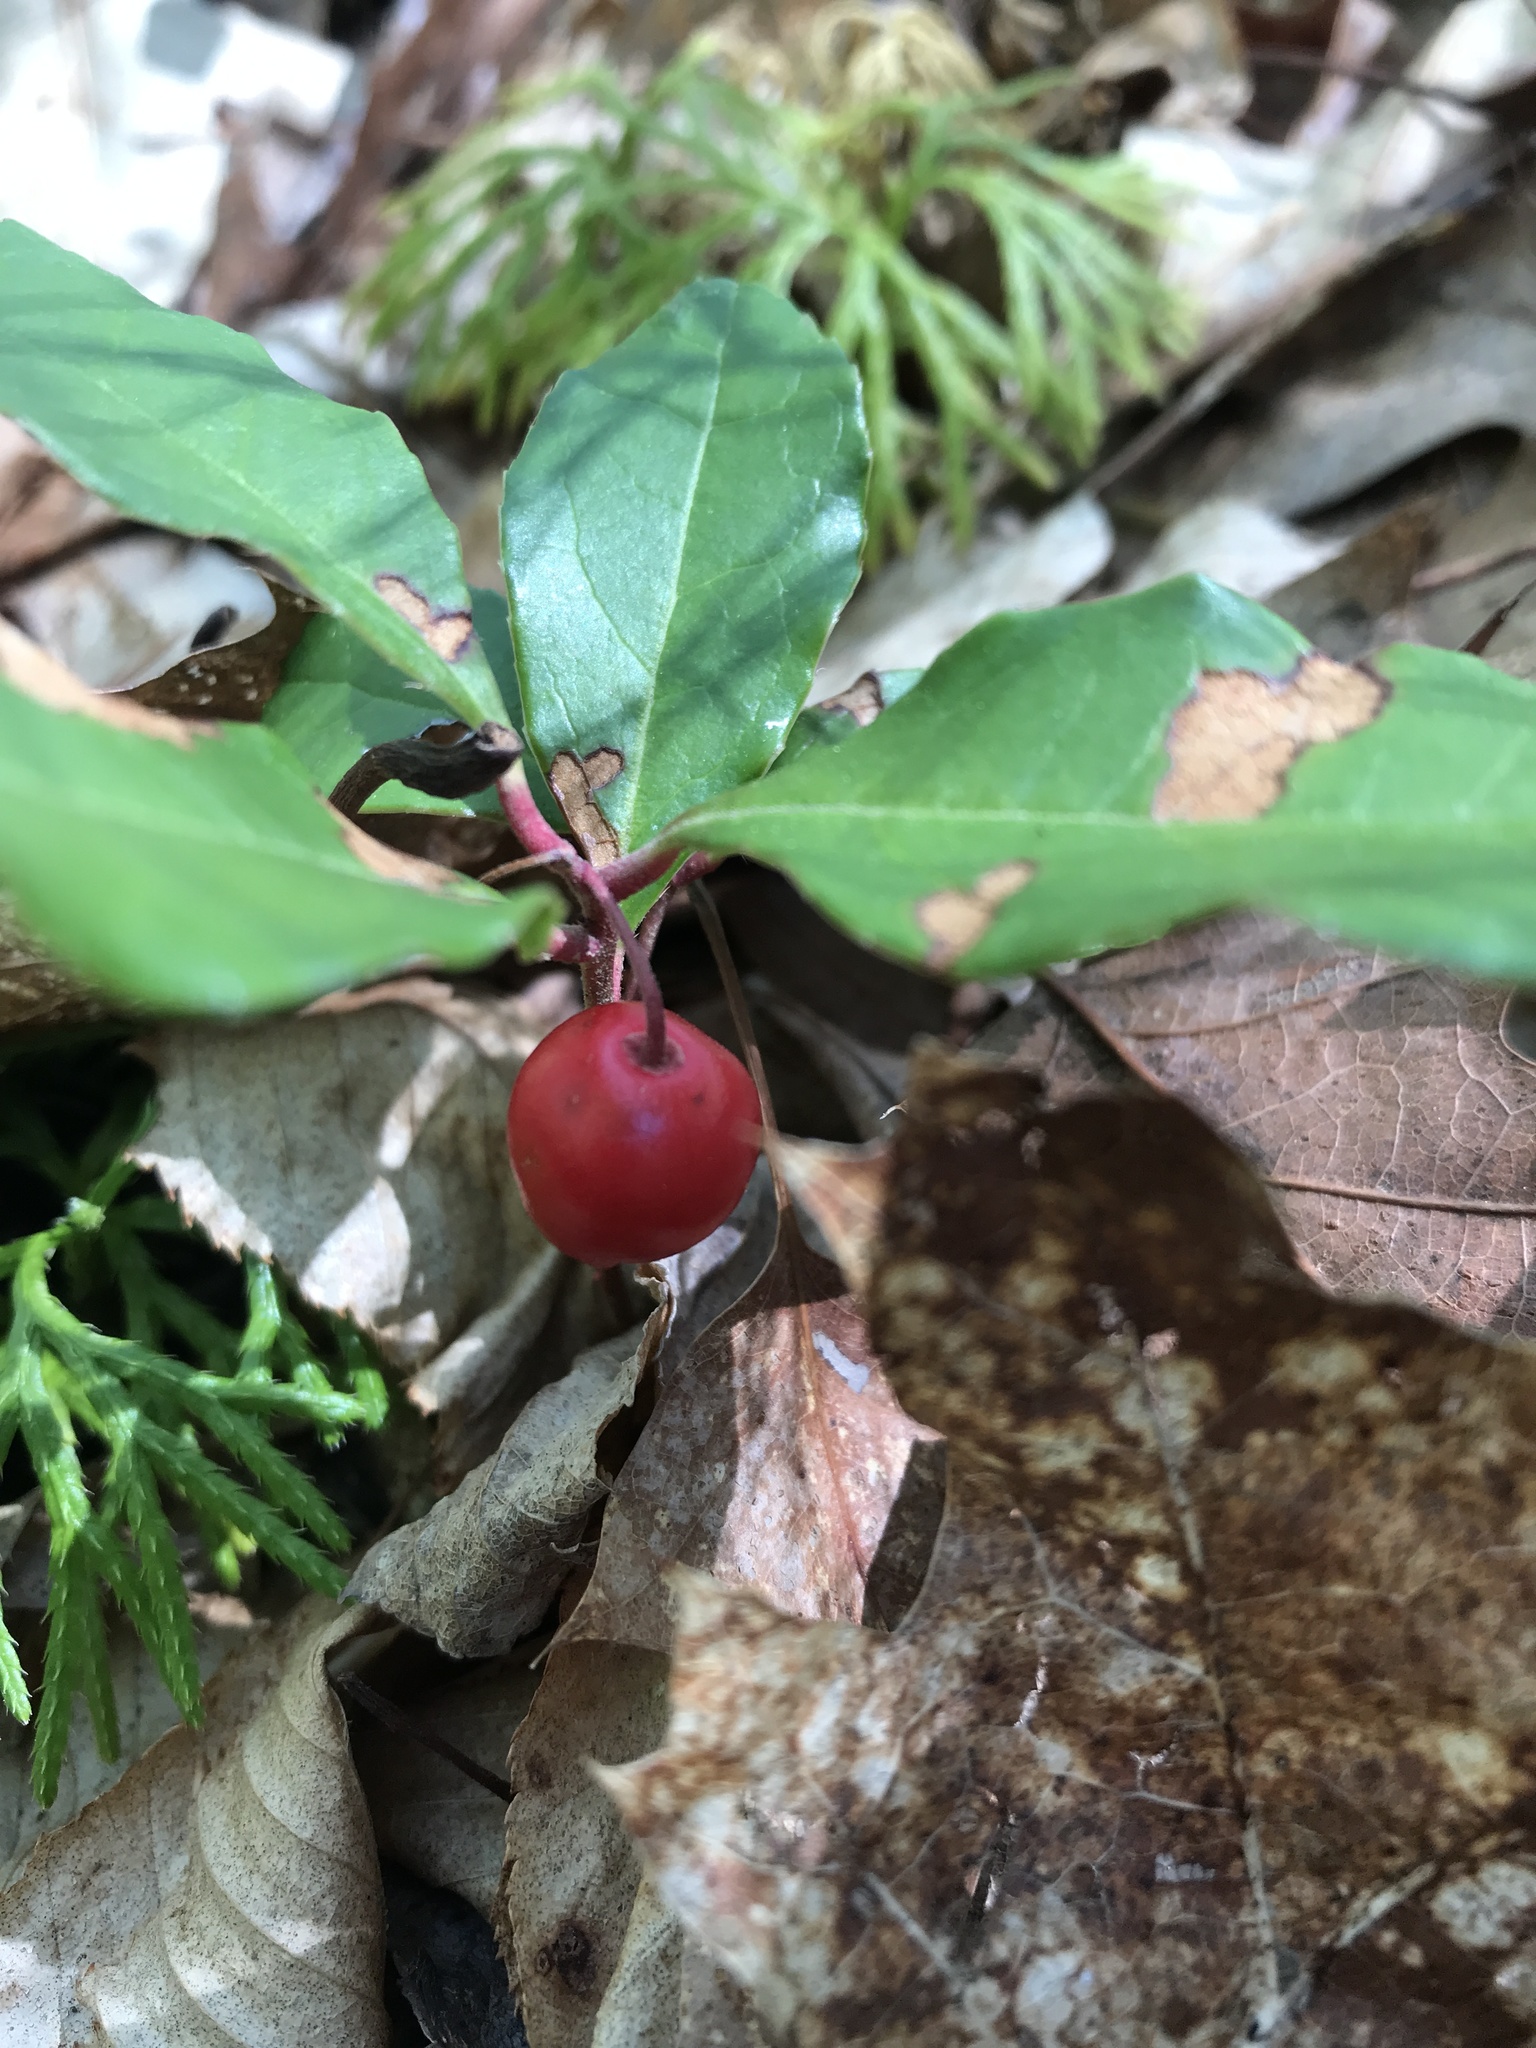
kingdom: Plantae
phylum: Tracheophyta
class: Magnoliopsida
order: Ericales
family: Ericaceae
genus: Gaultheria
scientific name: Gaultheria procumbens
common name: Checkerberry
